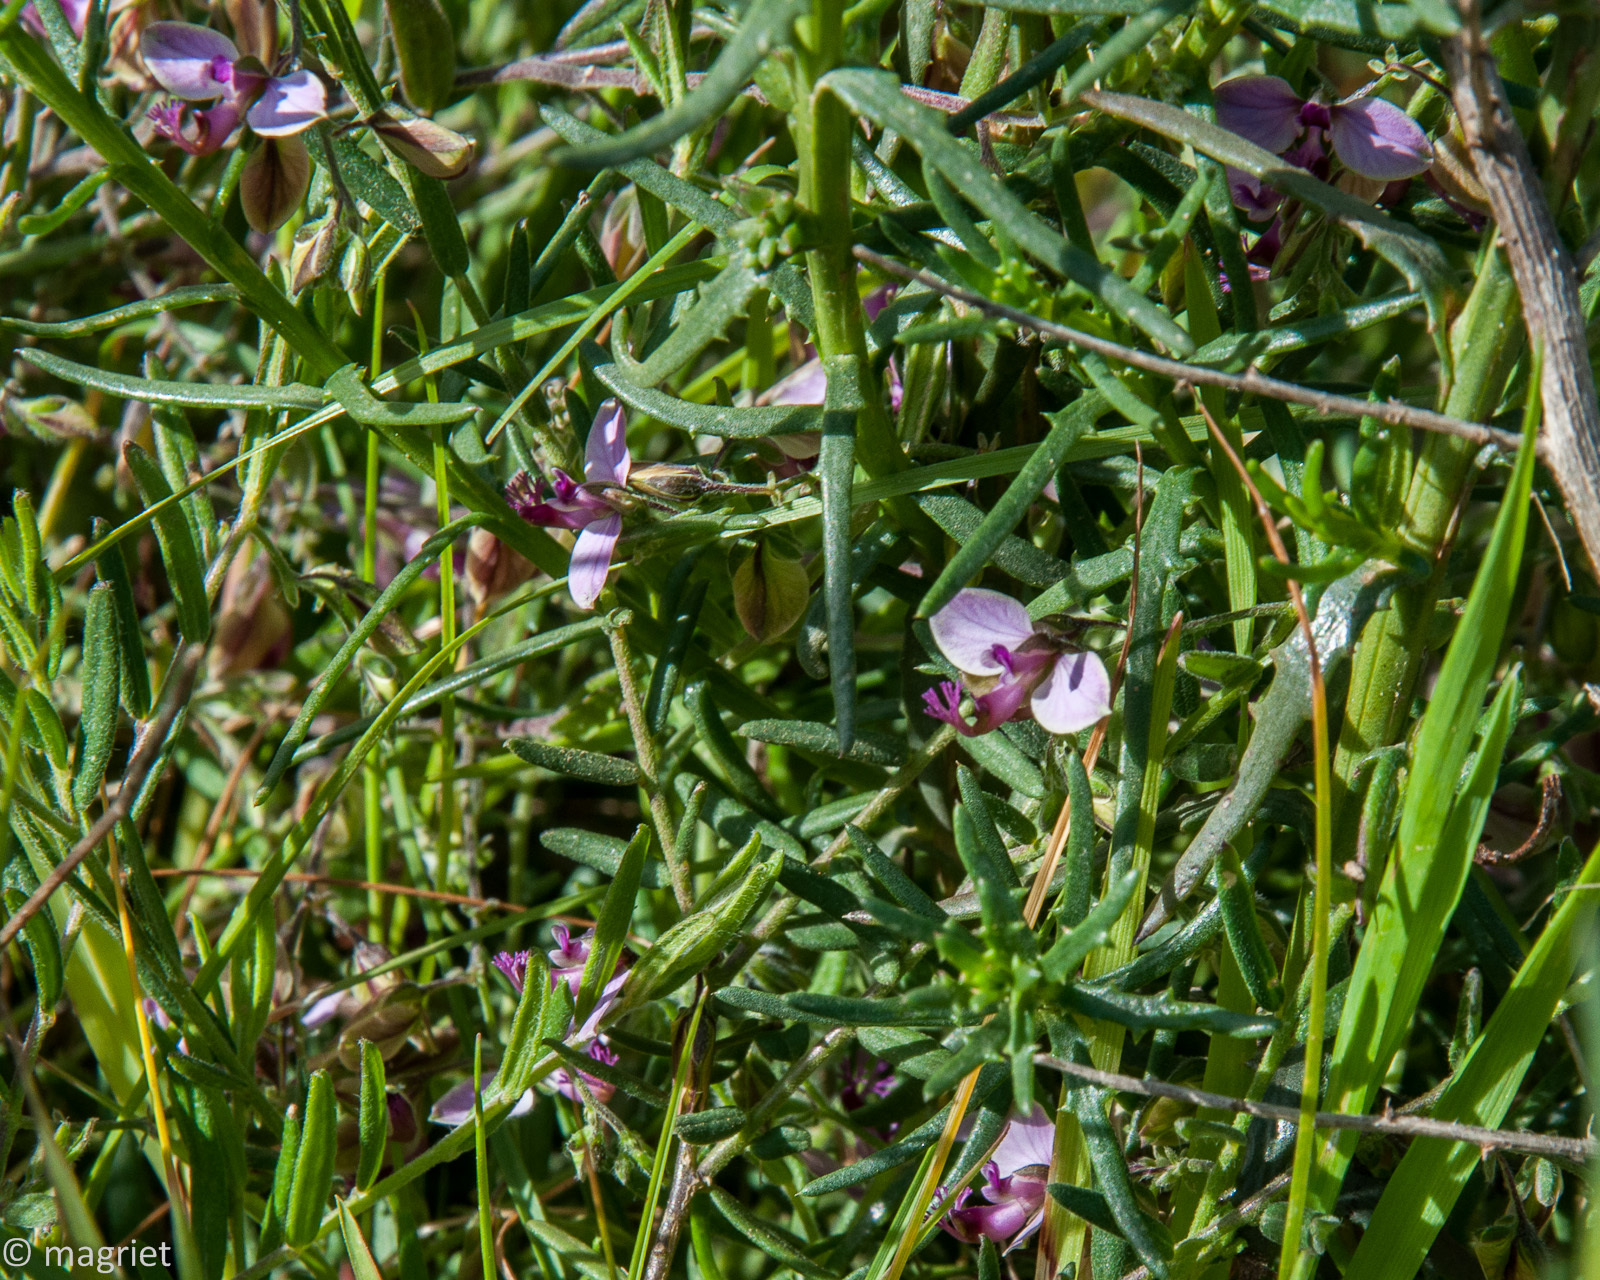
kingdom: Plantae
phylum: Tracheophyta
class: Magnoliopsida
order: Fabales
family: Polygalaceae
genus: Polygala
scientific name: Polygala scabra
